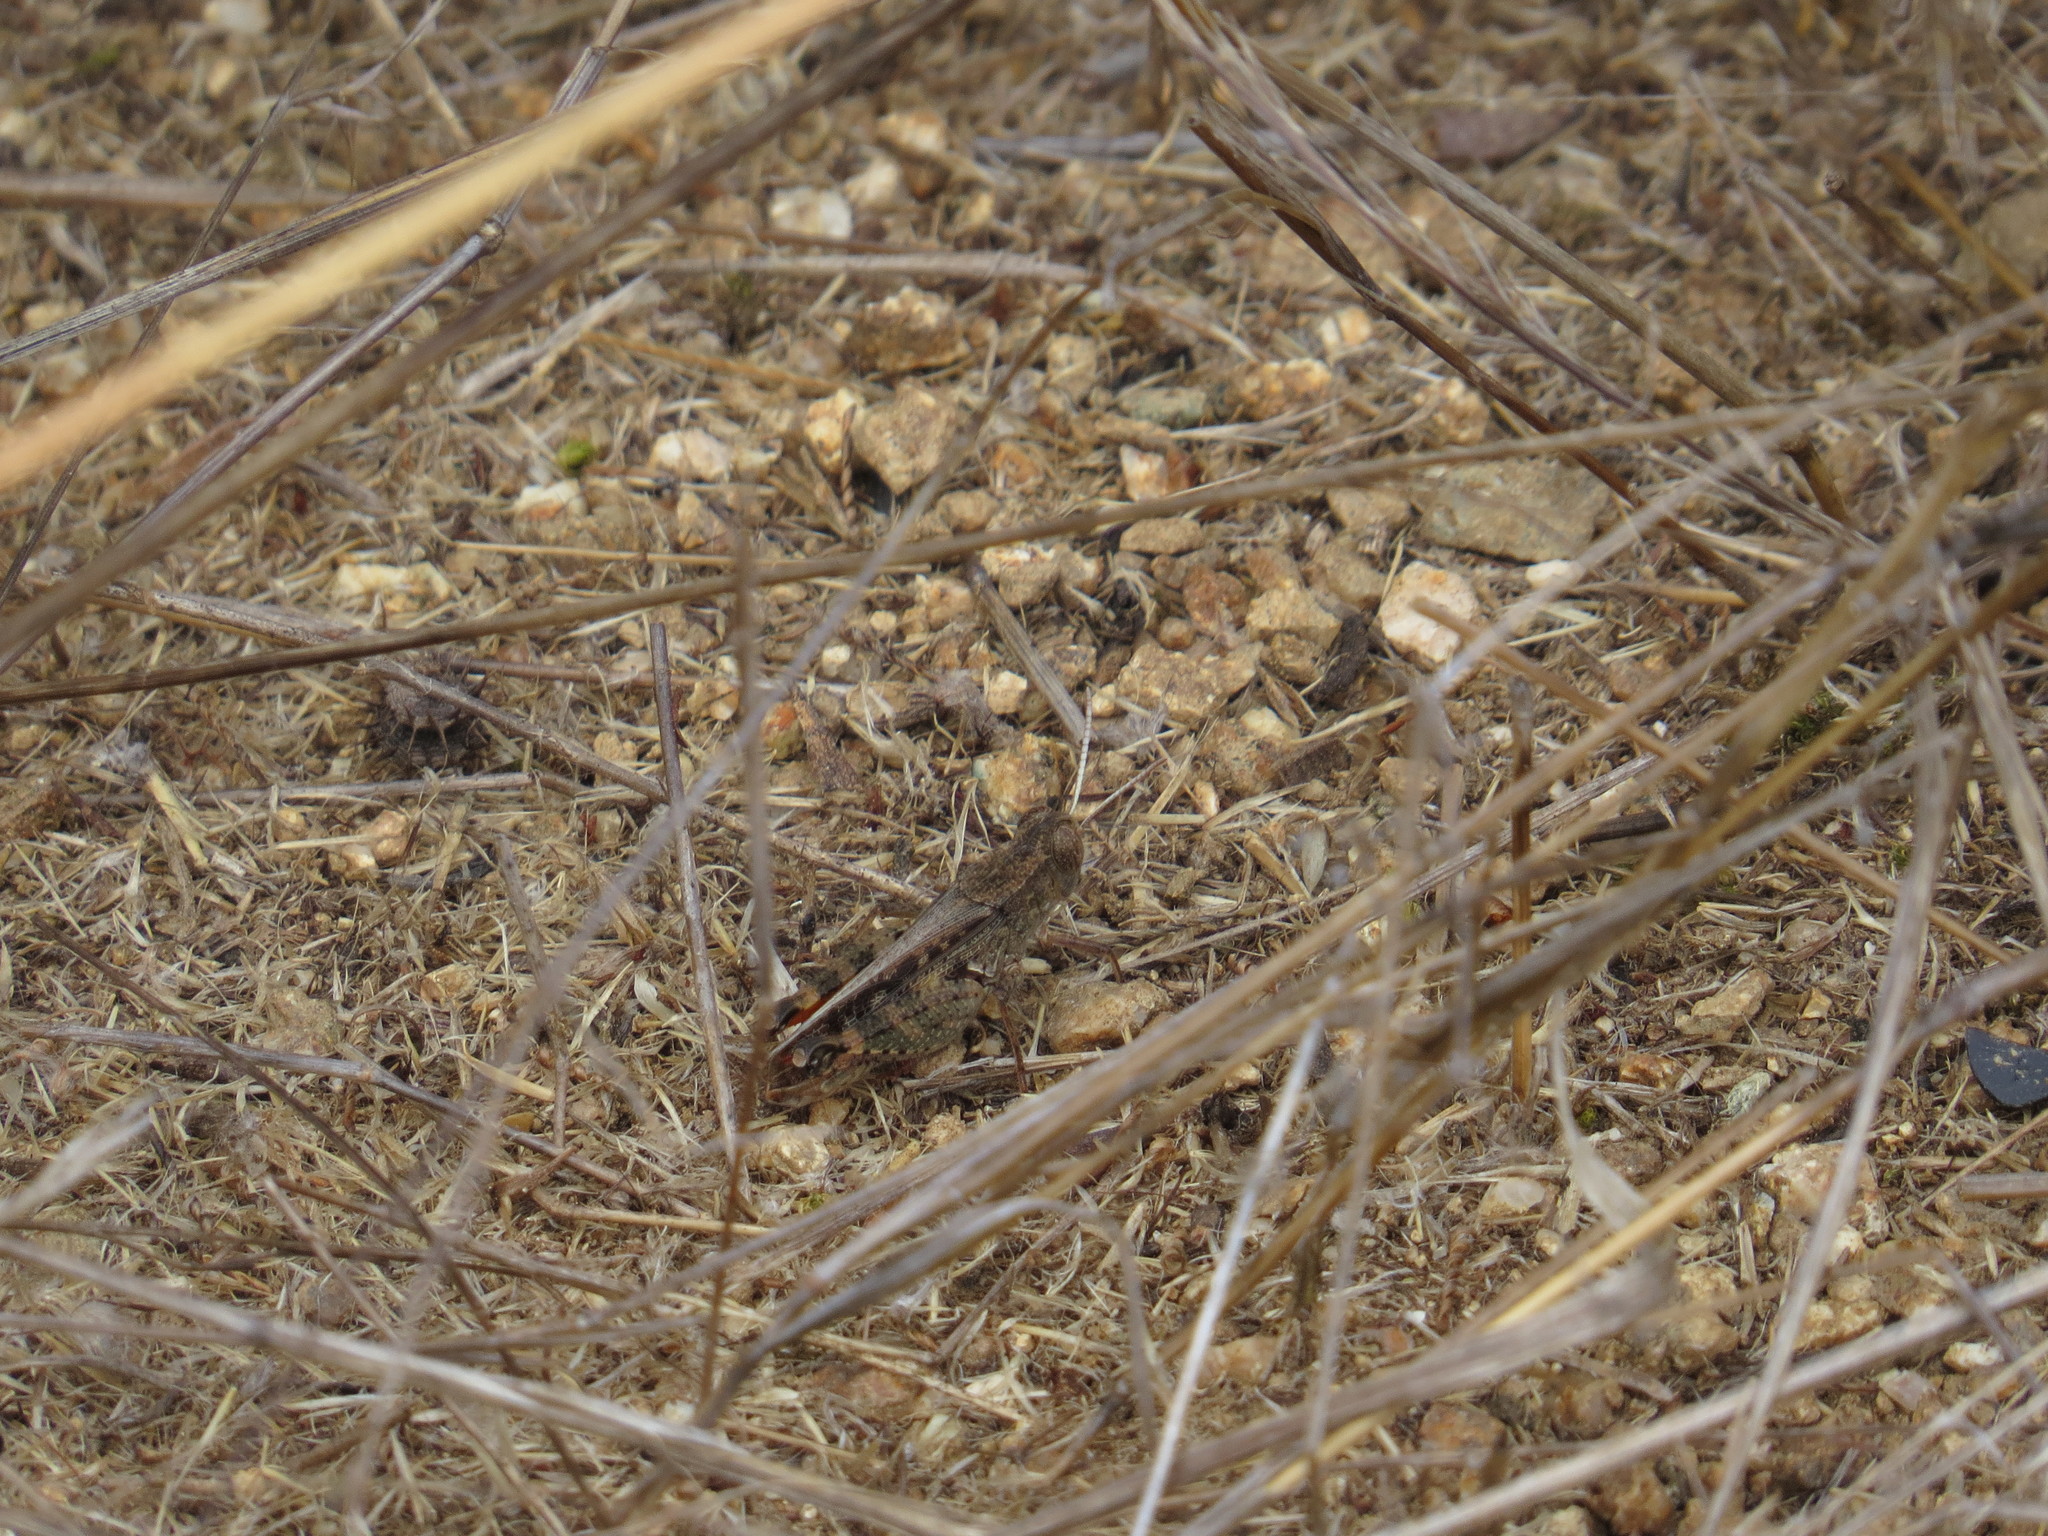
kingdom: Animalia
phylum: Arthropoda
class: Insecta
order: Orthoptera
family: Acrididae
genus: Calliptamus
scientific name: Calliptamus barbarus
